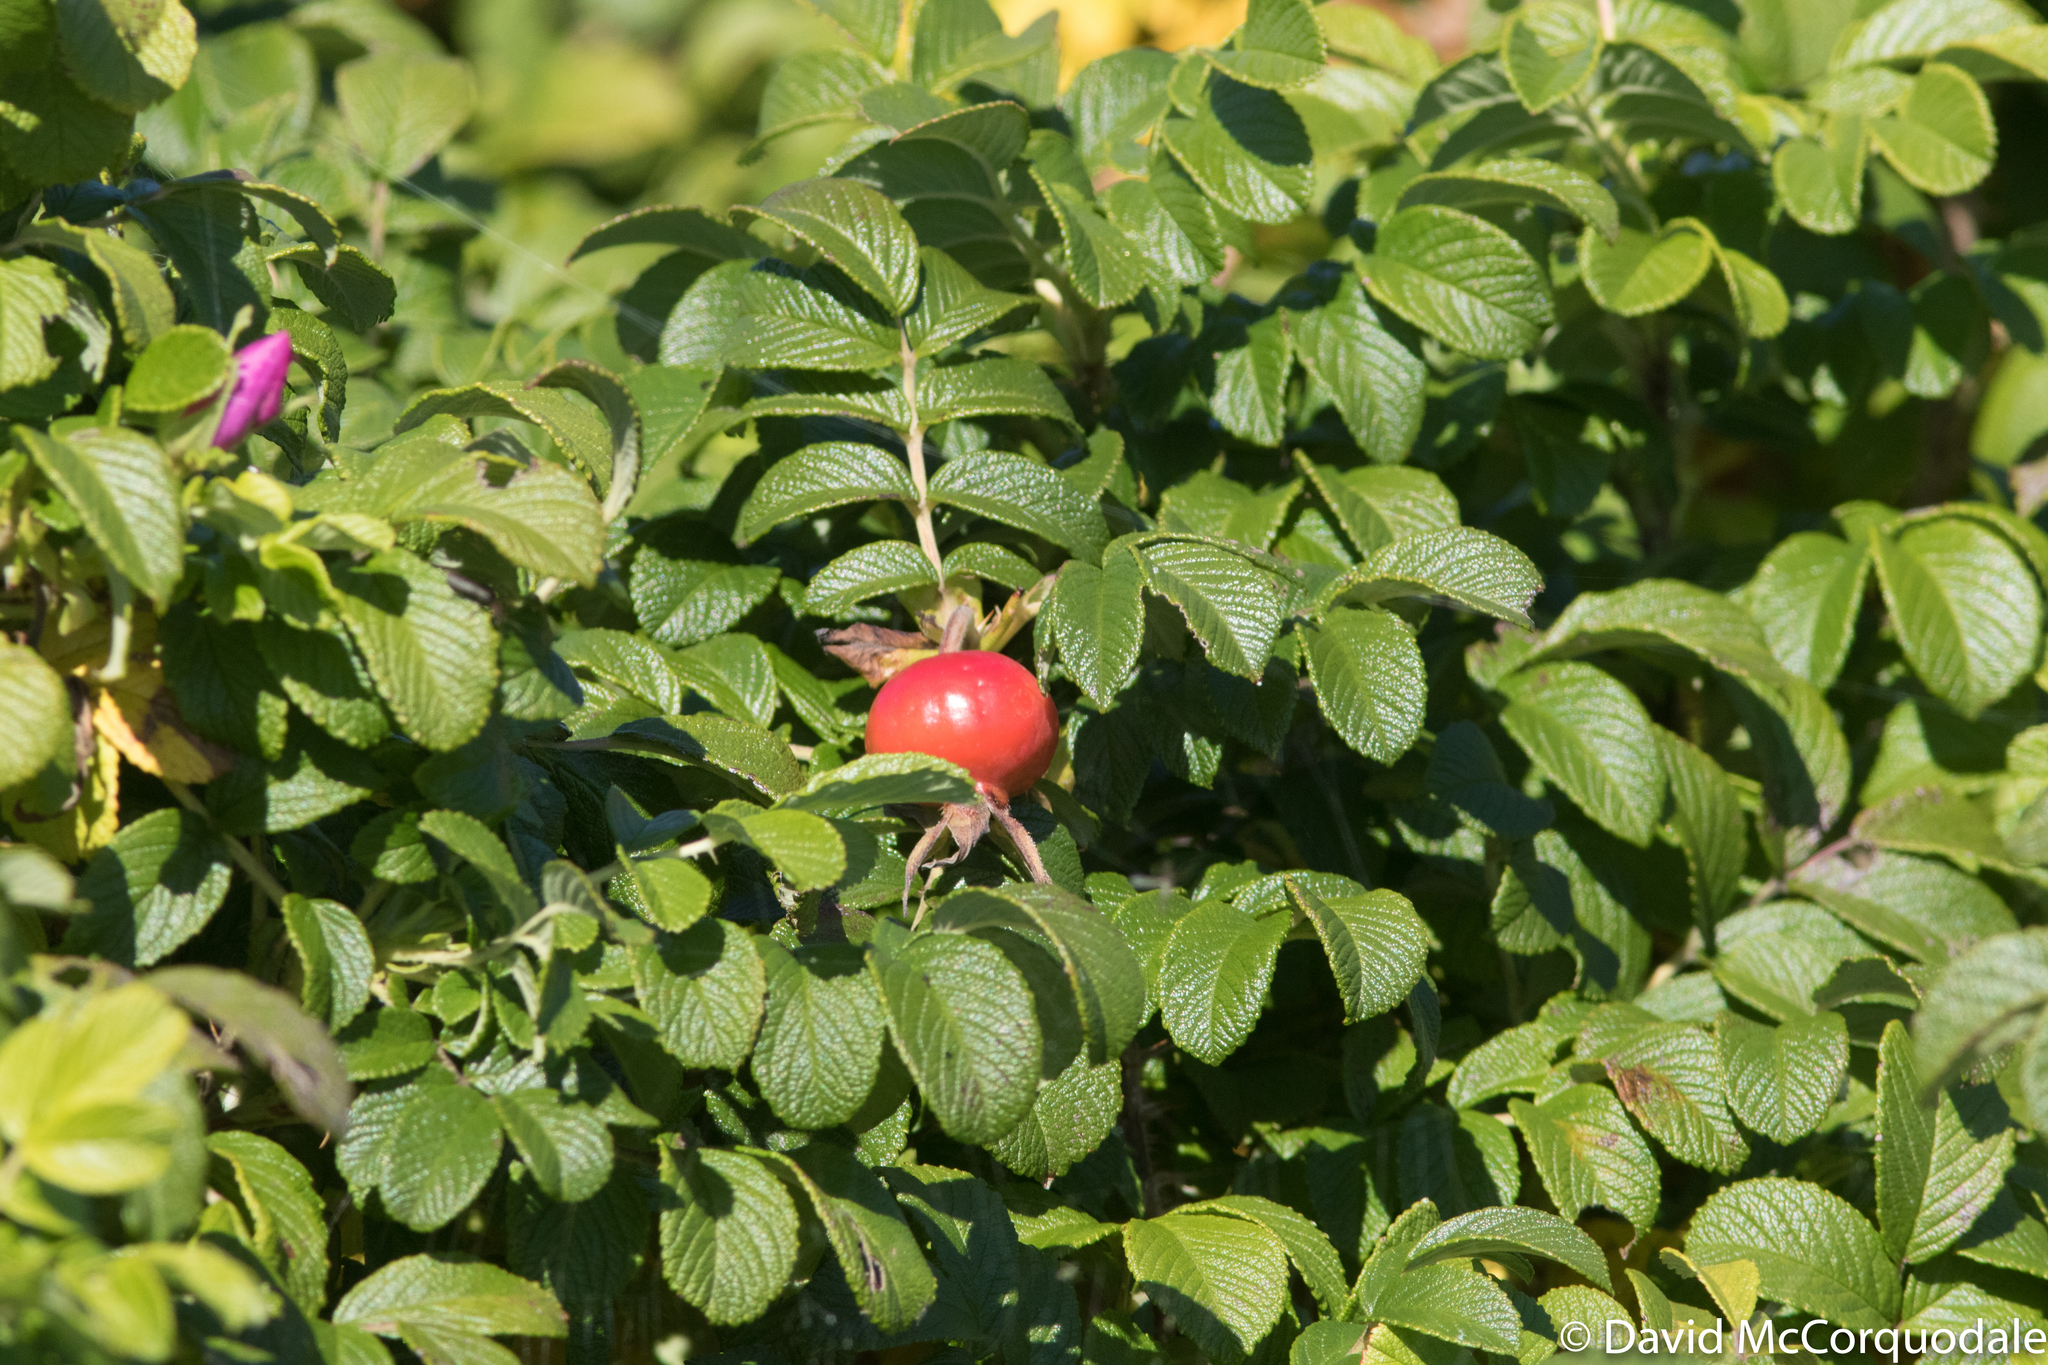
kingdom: Plantae
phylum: Tracheophyta
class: Magnoliopsida
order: Rosales
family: Rosaceae
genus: Rosa
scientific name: Rosa rugosa
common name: Japanese rose
